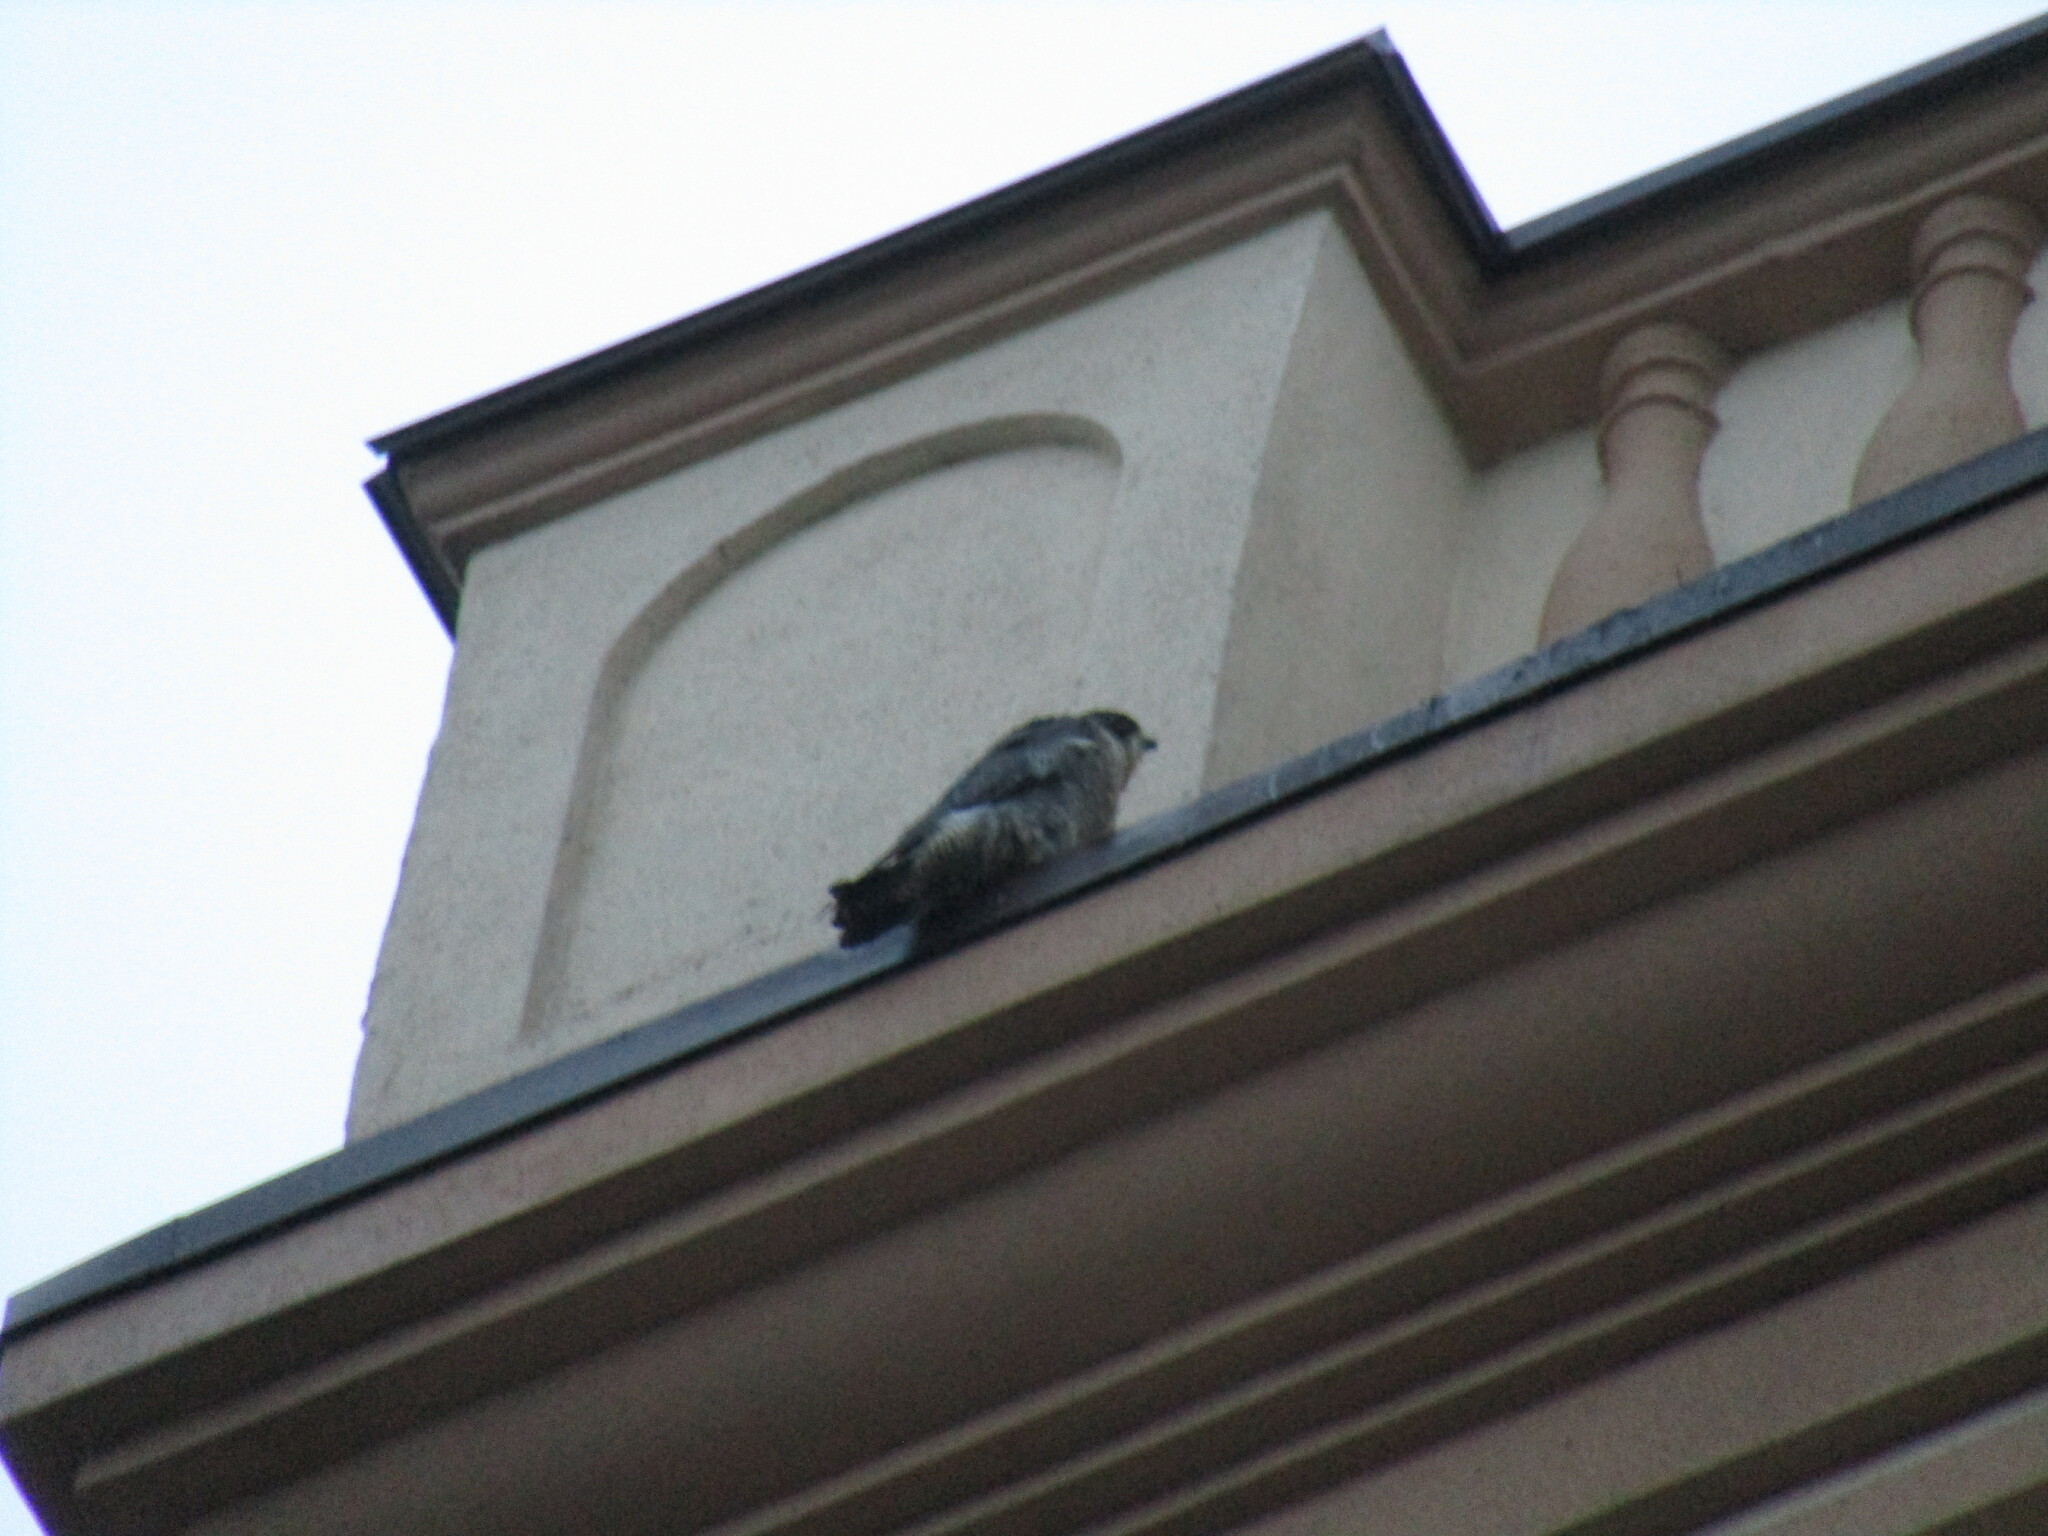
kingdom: Animalia
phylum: Chordata
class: Aves
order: Falconiformes
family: Falconidae
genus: Falco
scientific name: Falco peregrinus
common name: Peregrine falcon
